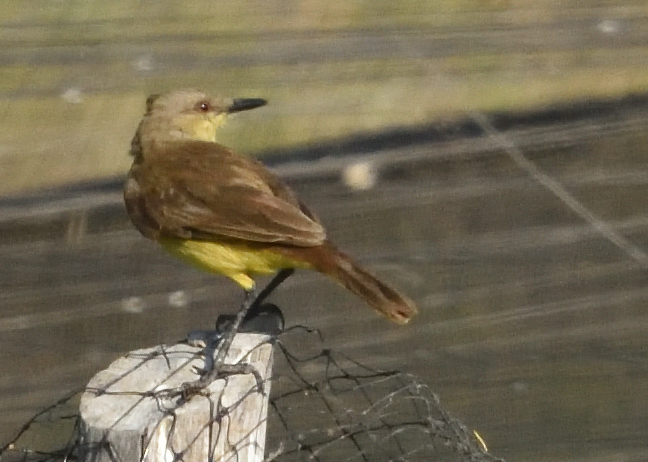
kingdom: Animalia
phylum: Chordata
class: Aves
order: Passeriformes
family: Tyrannidae
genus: Machetornis
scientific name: Machetornis rixosa
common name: Cattle tyrant
